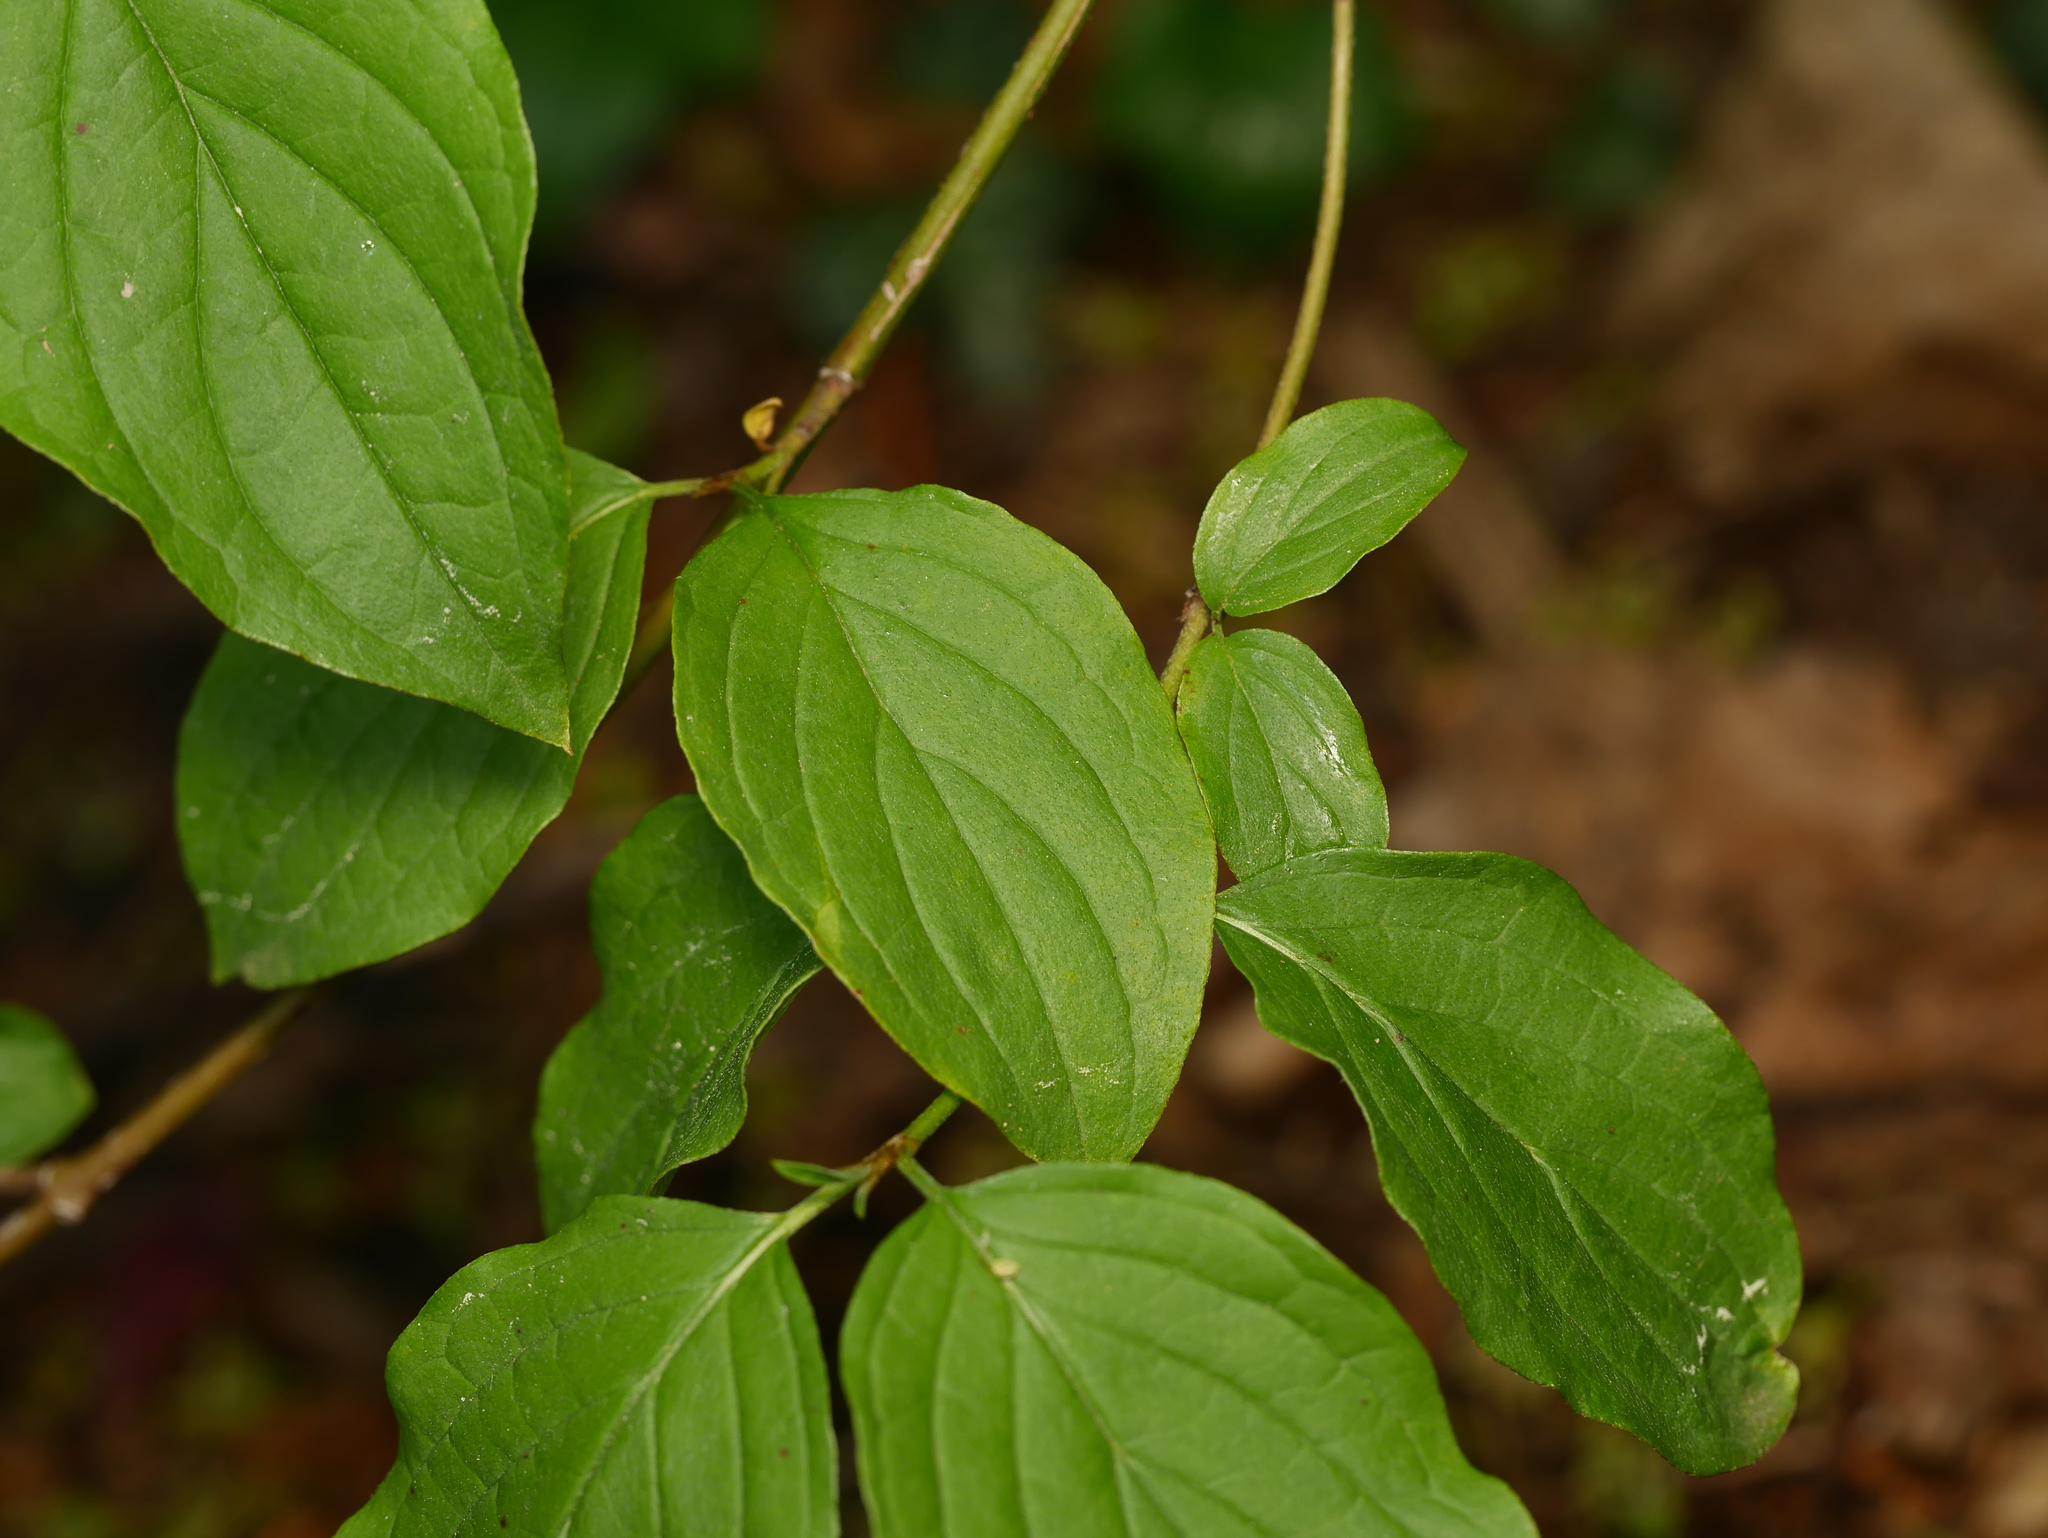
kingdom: Plantae
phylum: Tracheophyta
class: Magnoliopsida
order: Cornales
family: Cornaceae
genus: Cornus
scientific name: Cornus sanguinea
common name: Dogwood
